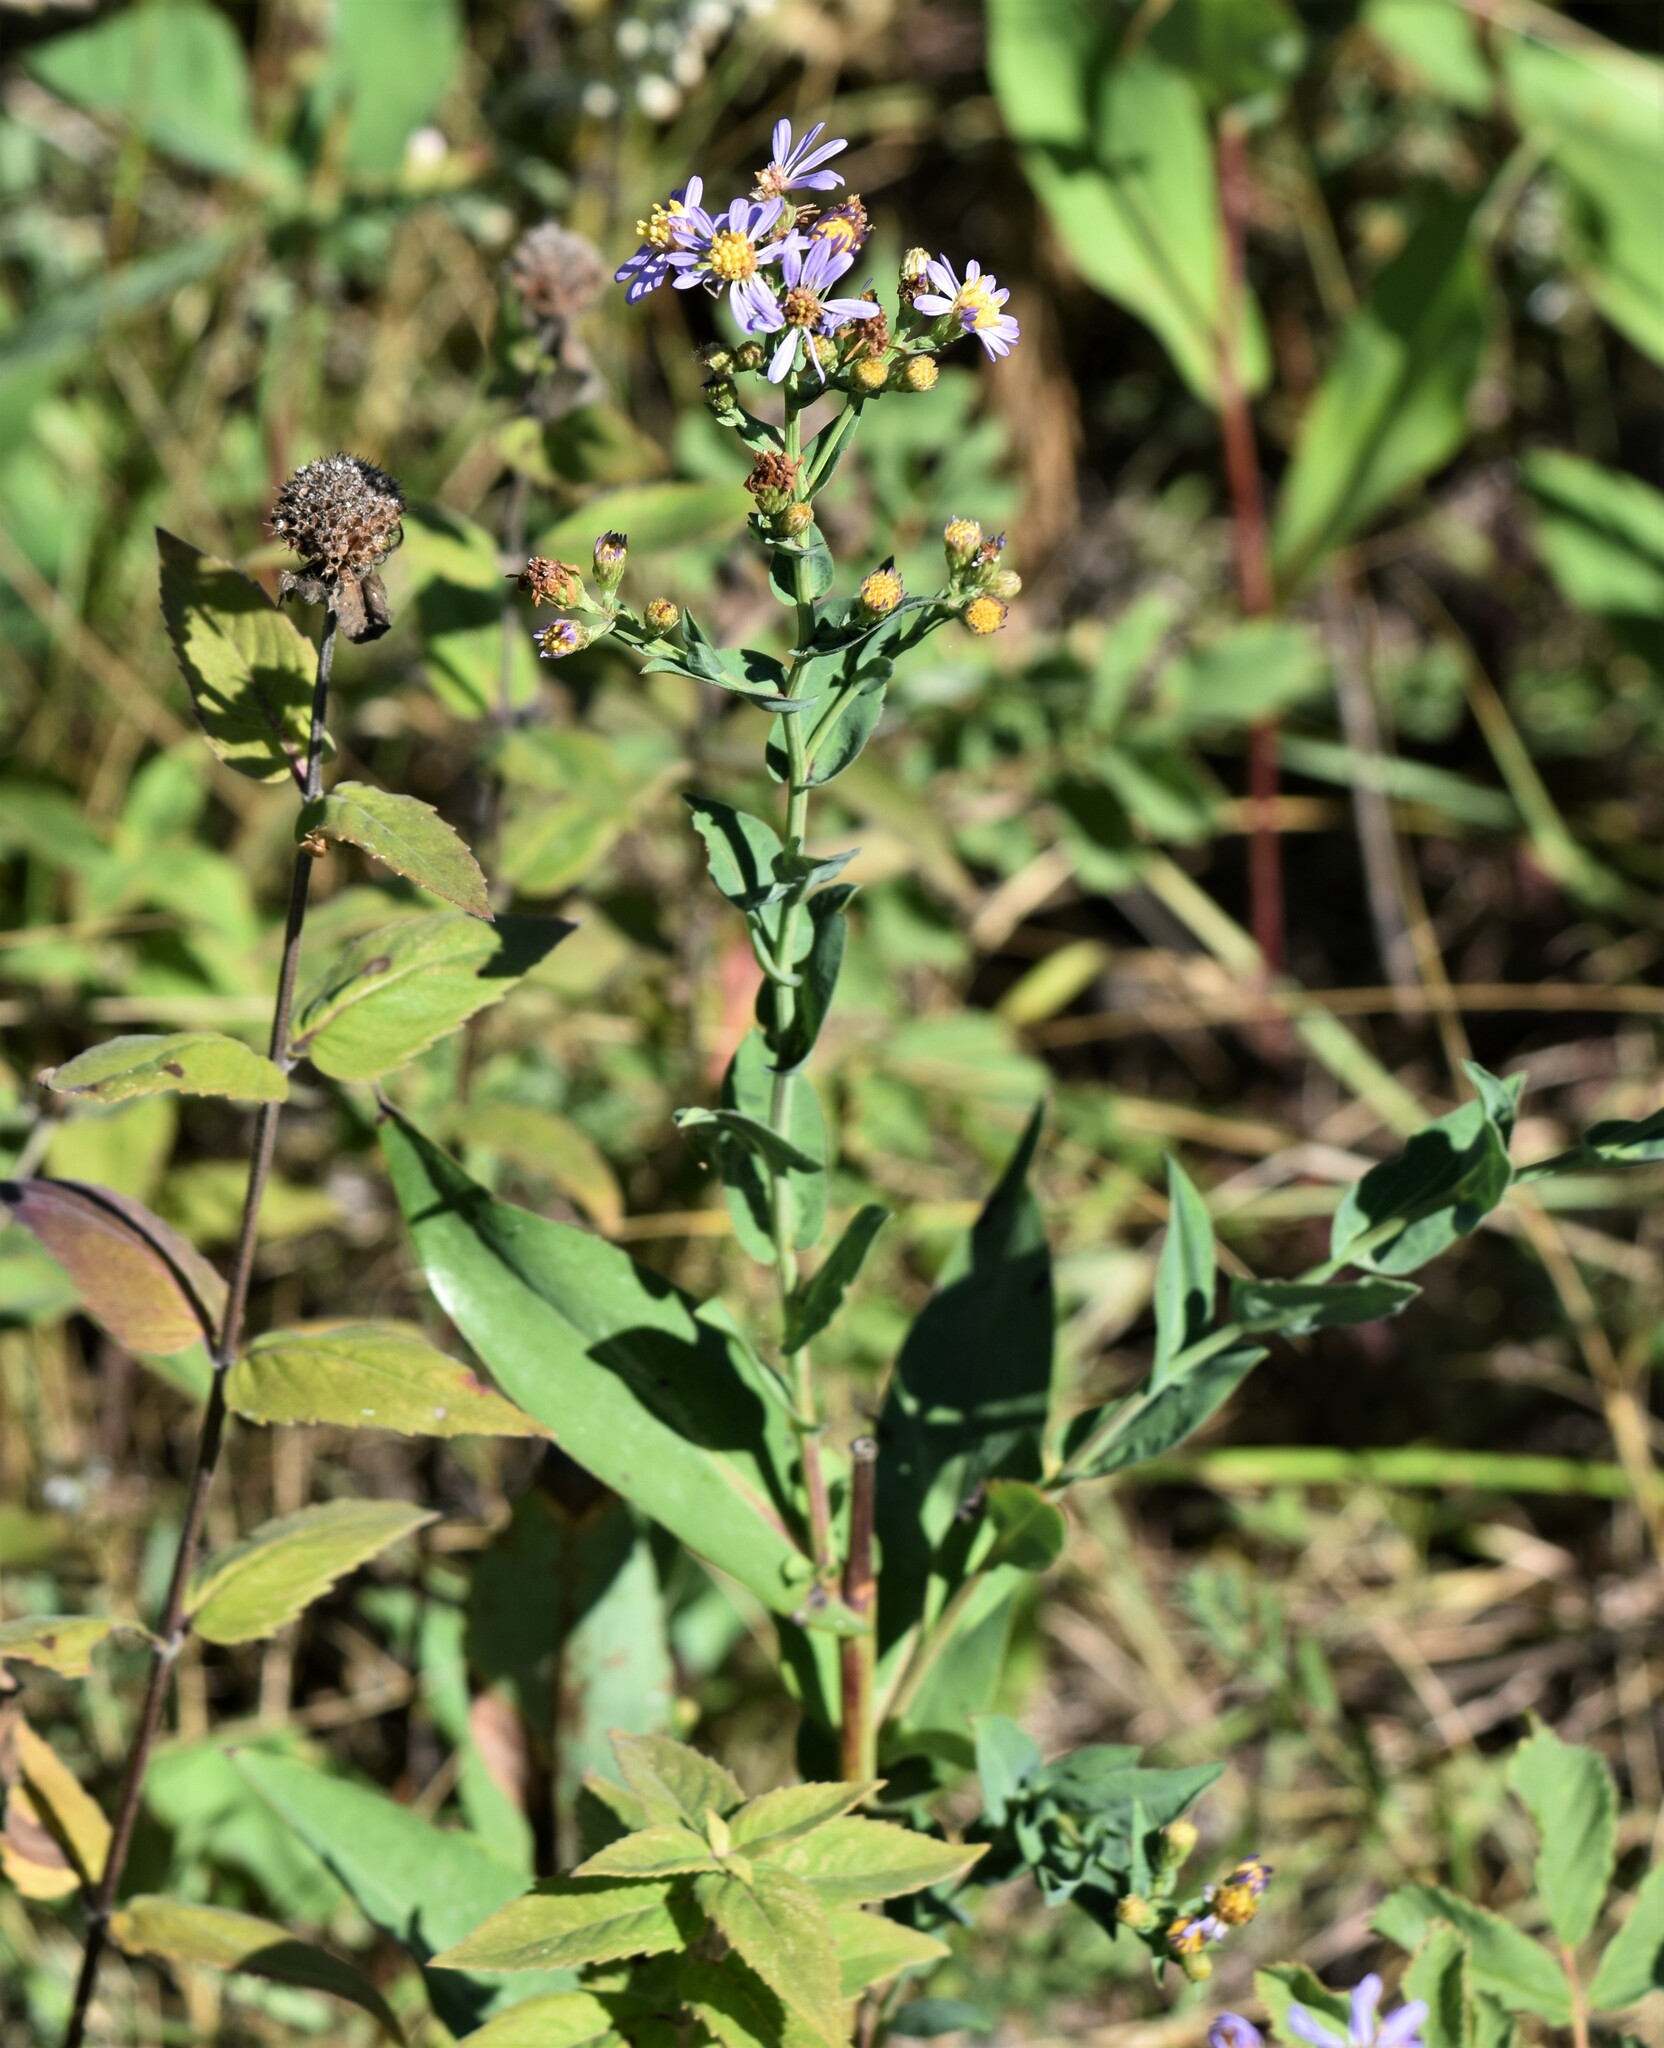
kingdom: Plantae
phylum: Tracheophyta
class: Magnoliopsida
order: Asterales
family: Asteraceae
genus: Symphyotrichum
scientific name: Symphyotrichum laeve
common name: Glaucous aster
